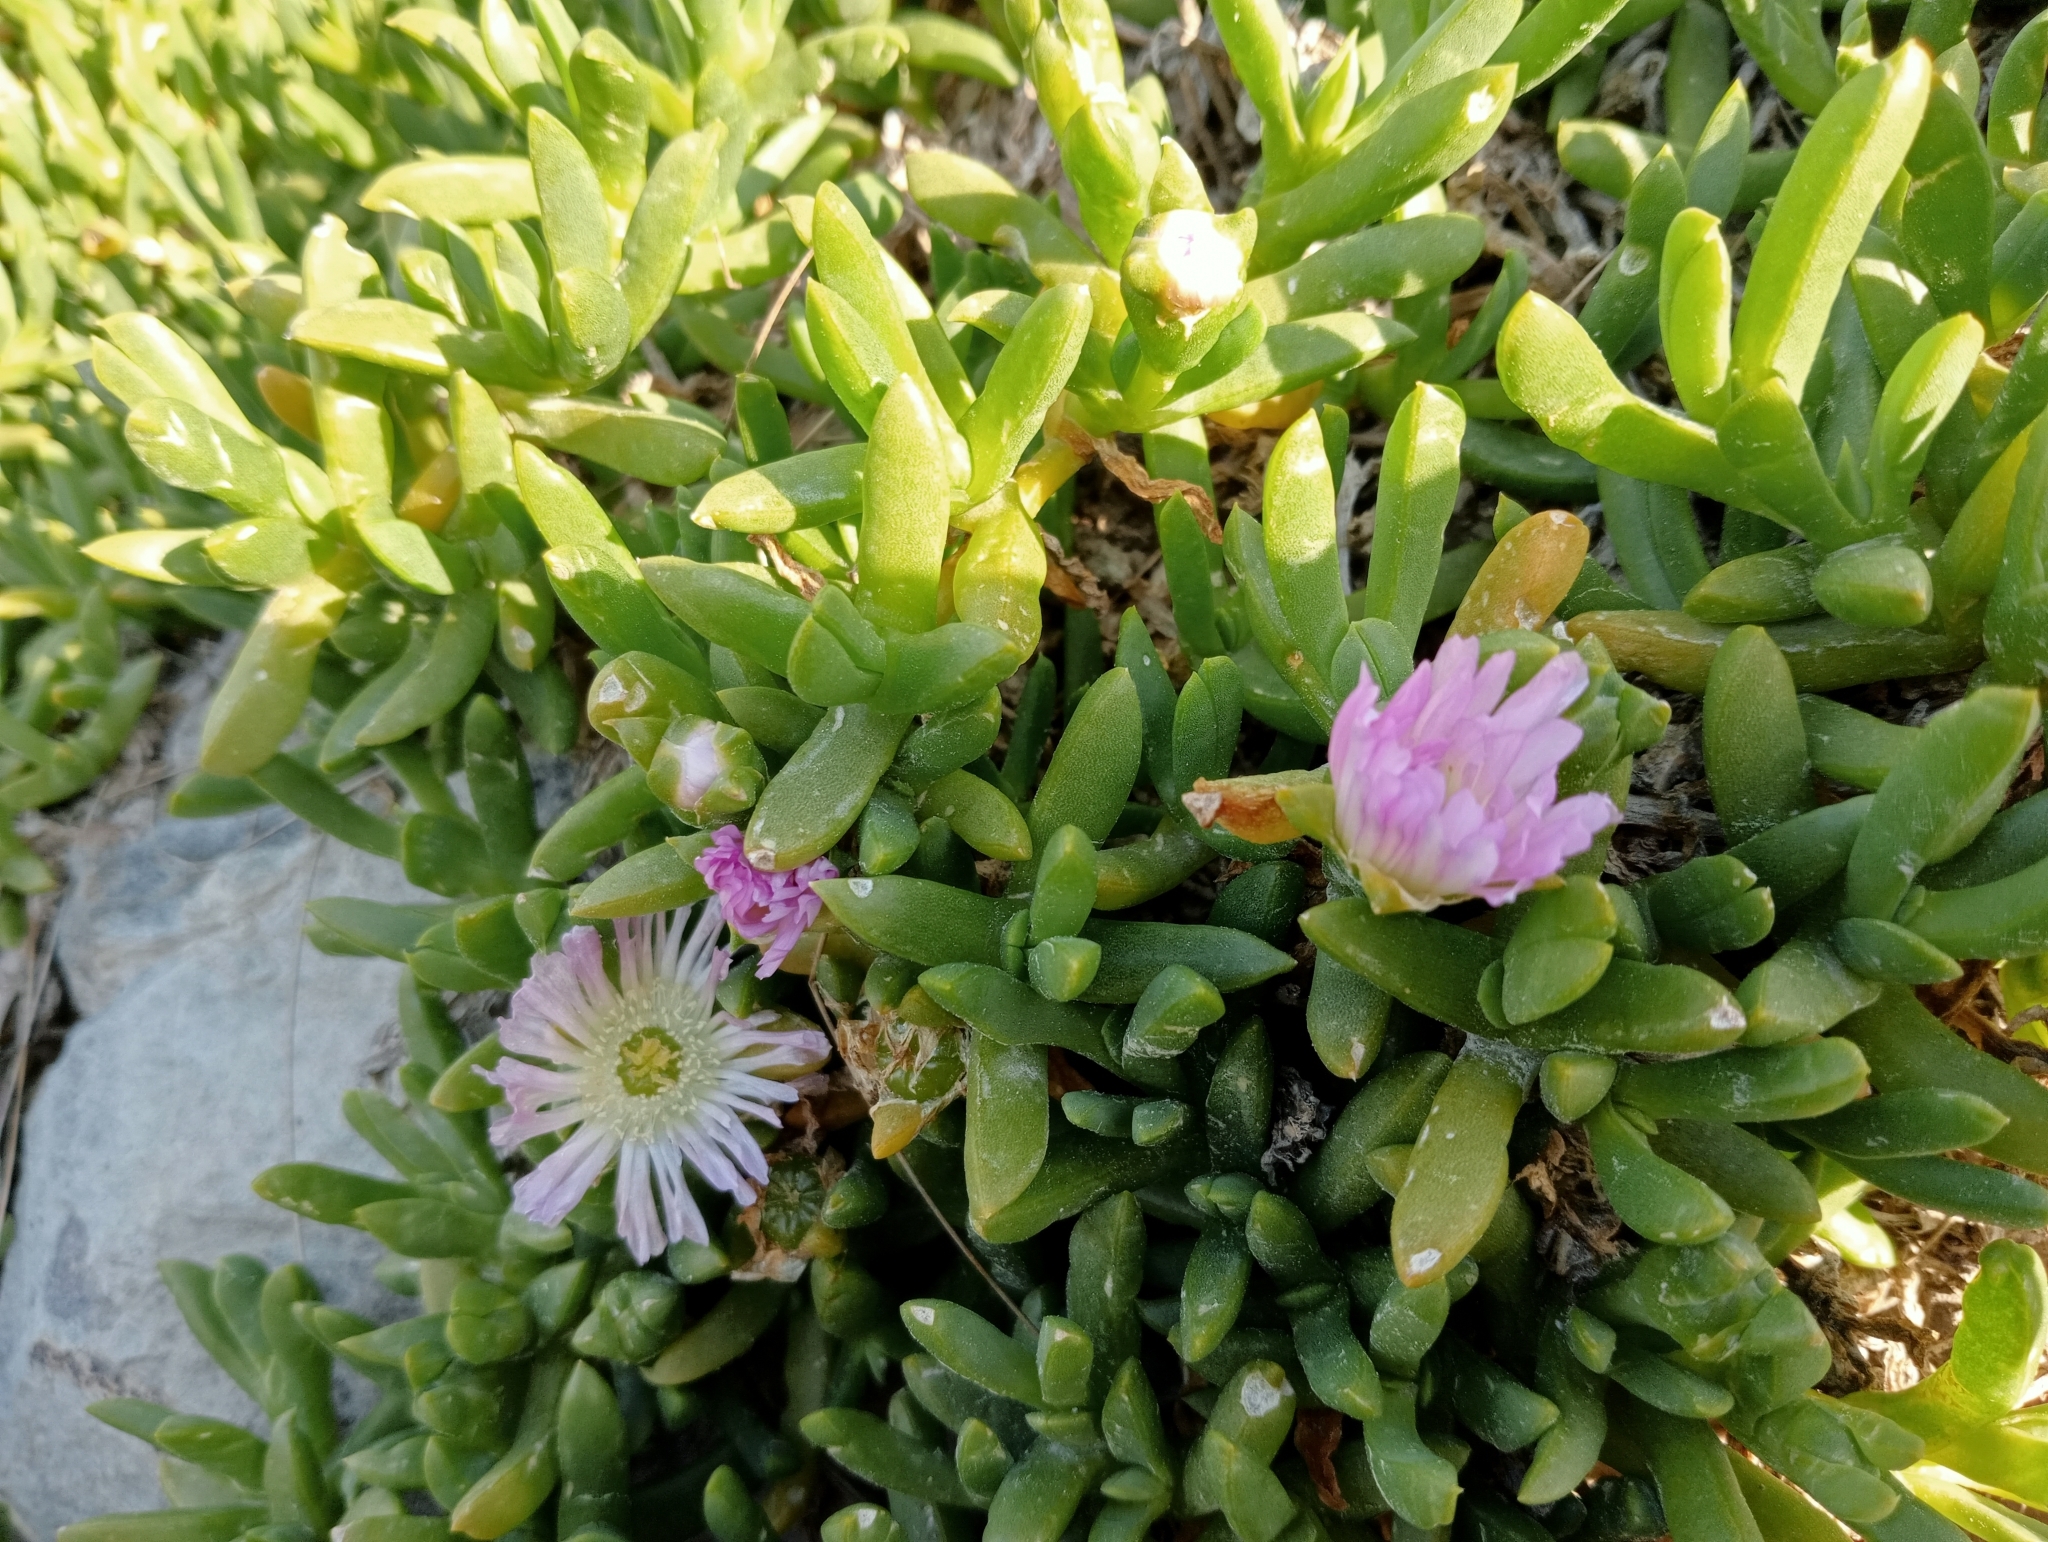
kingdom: Plantae
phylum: Tracheophyta
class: Magnoliopsida
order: Caryophyllales
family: Aizoaceae
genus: Disphyma
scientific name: Disphyma australe
